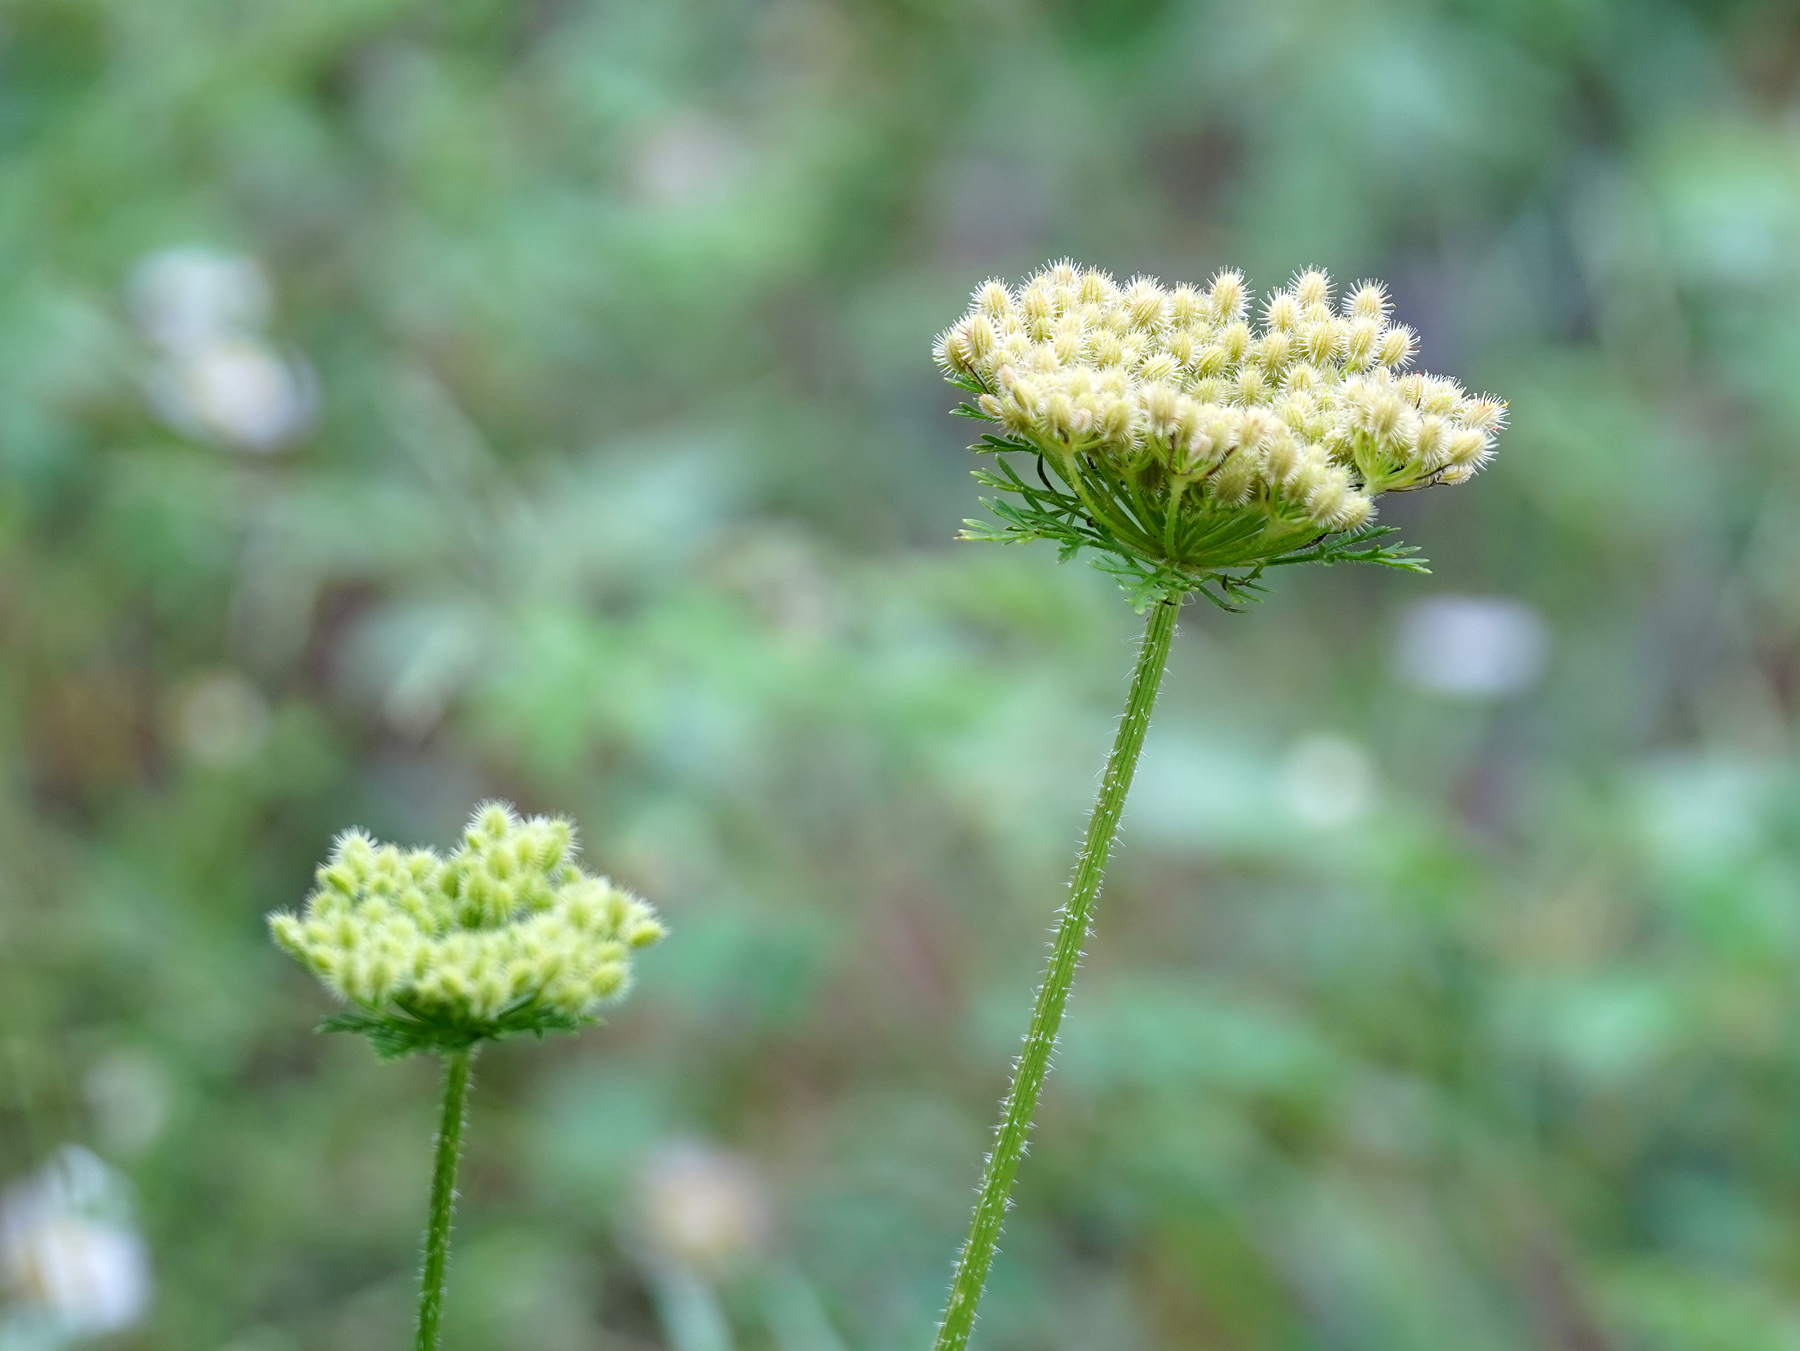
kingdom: Plantae
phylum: Tracheophyta
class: Magnoliopsida
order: Apiales
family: Apiaceae
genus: Daucus
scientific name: Daucus pusillus
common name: Southwest wild carrot
